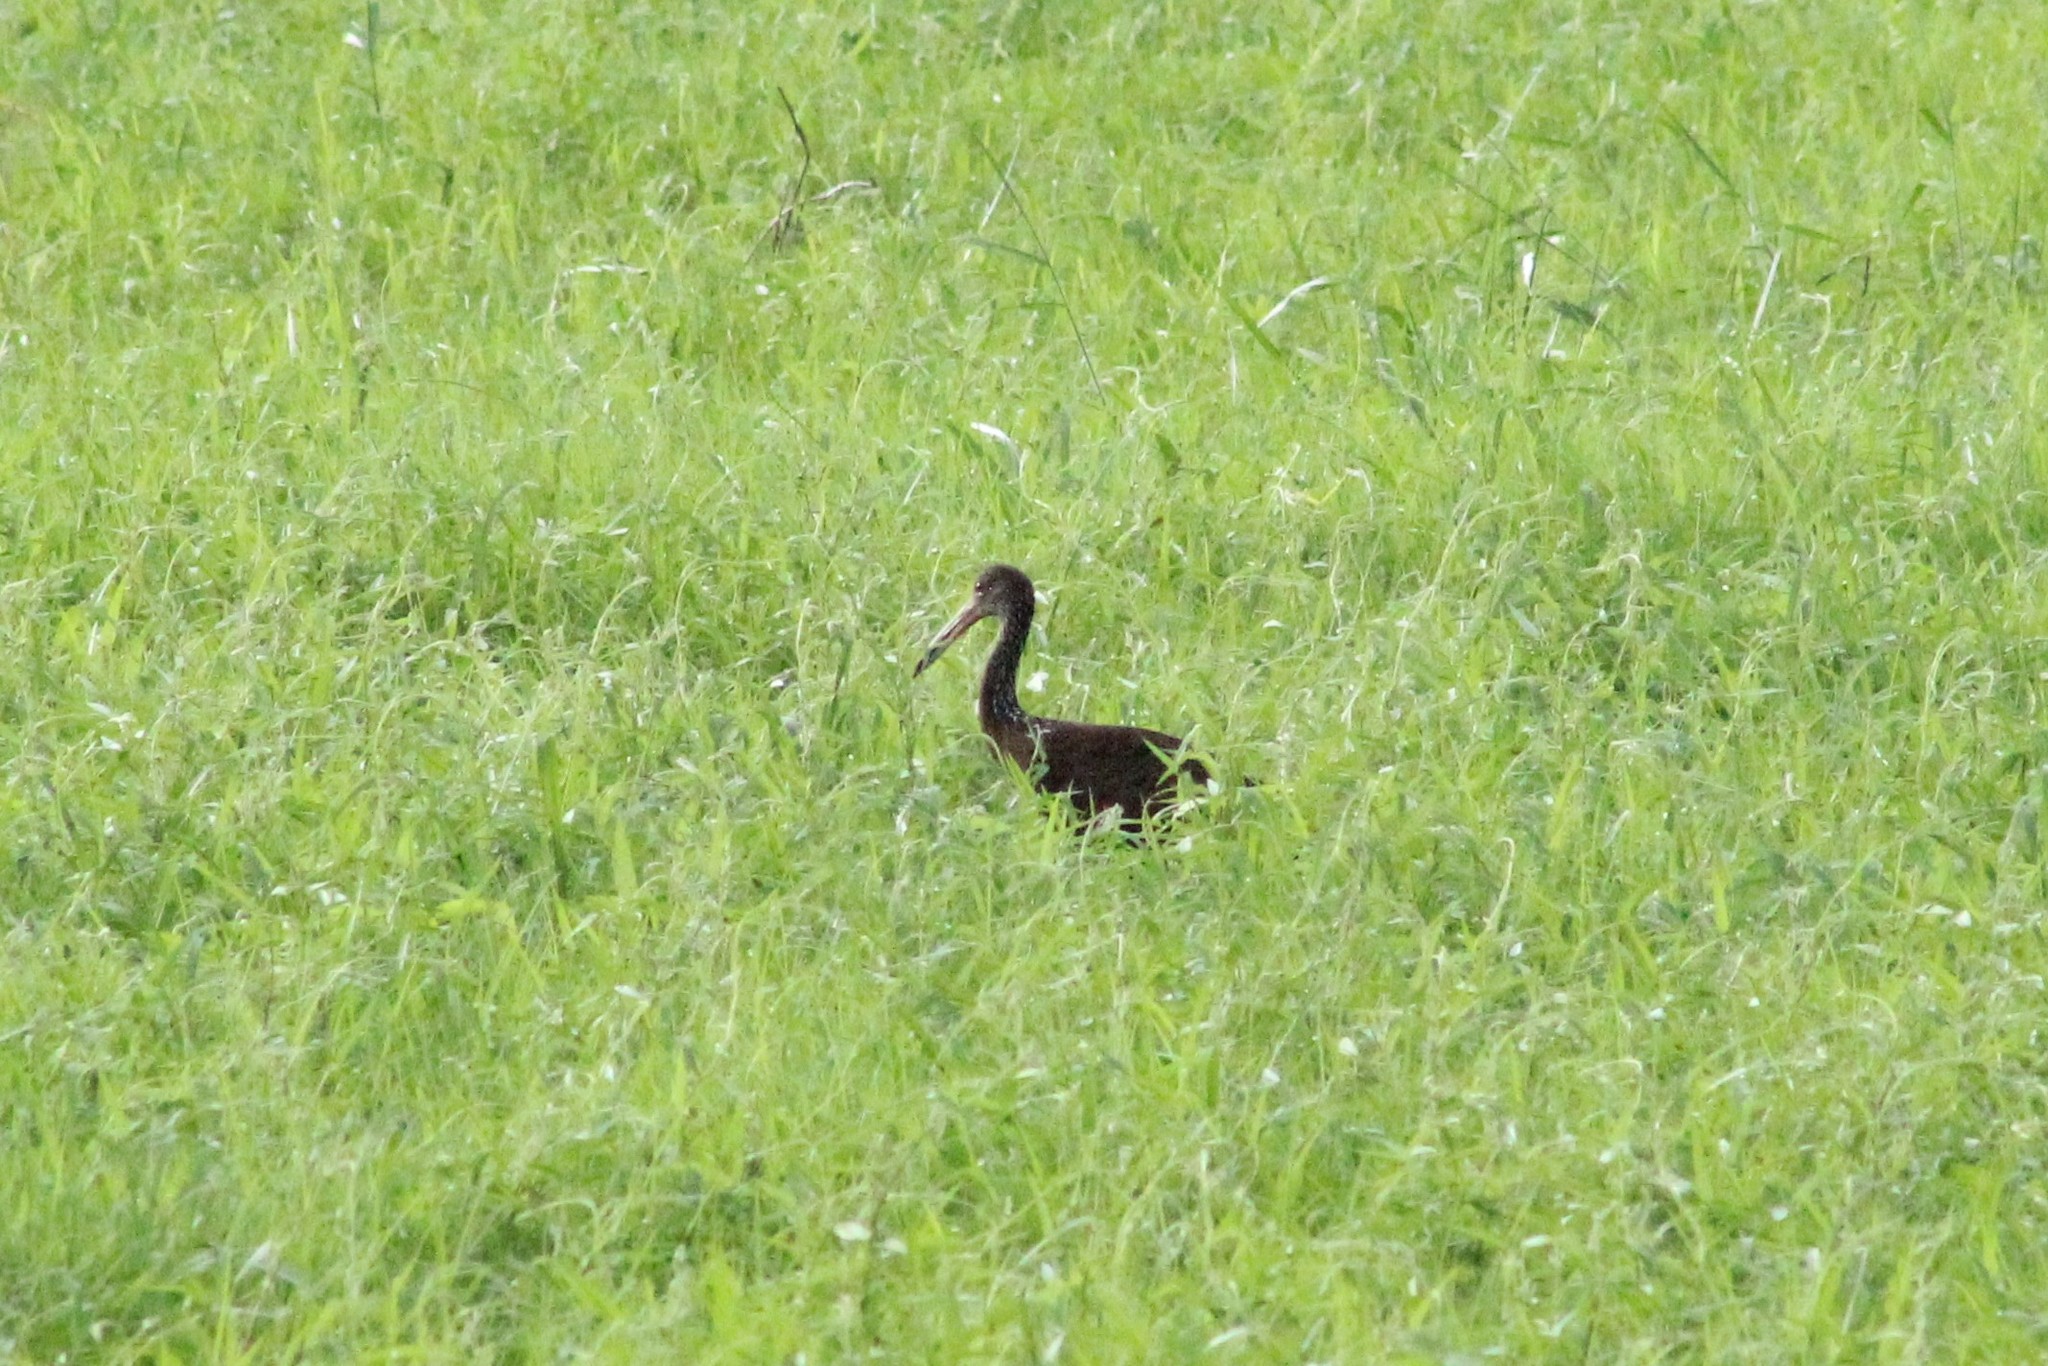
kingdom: Animalia
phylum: Chordata
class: Aves
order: Gruiformes
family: Aramidae
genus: Aramus
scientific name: Aramus guarauna
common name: Limpkin
